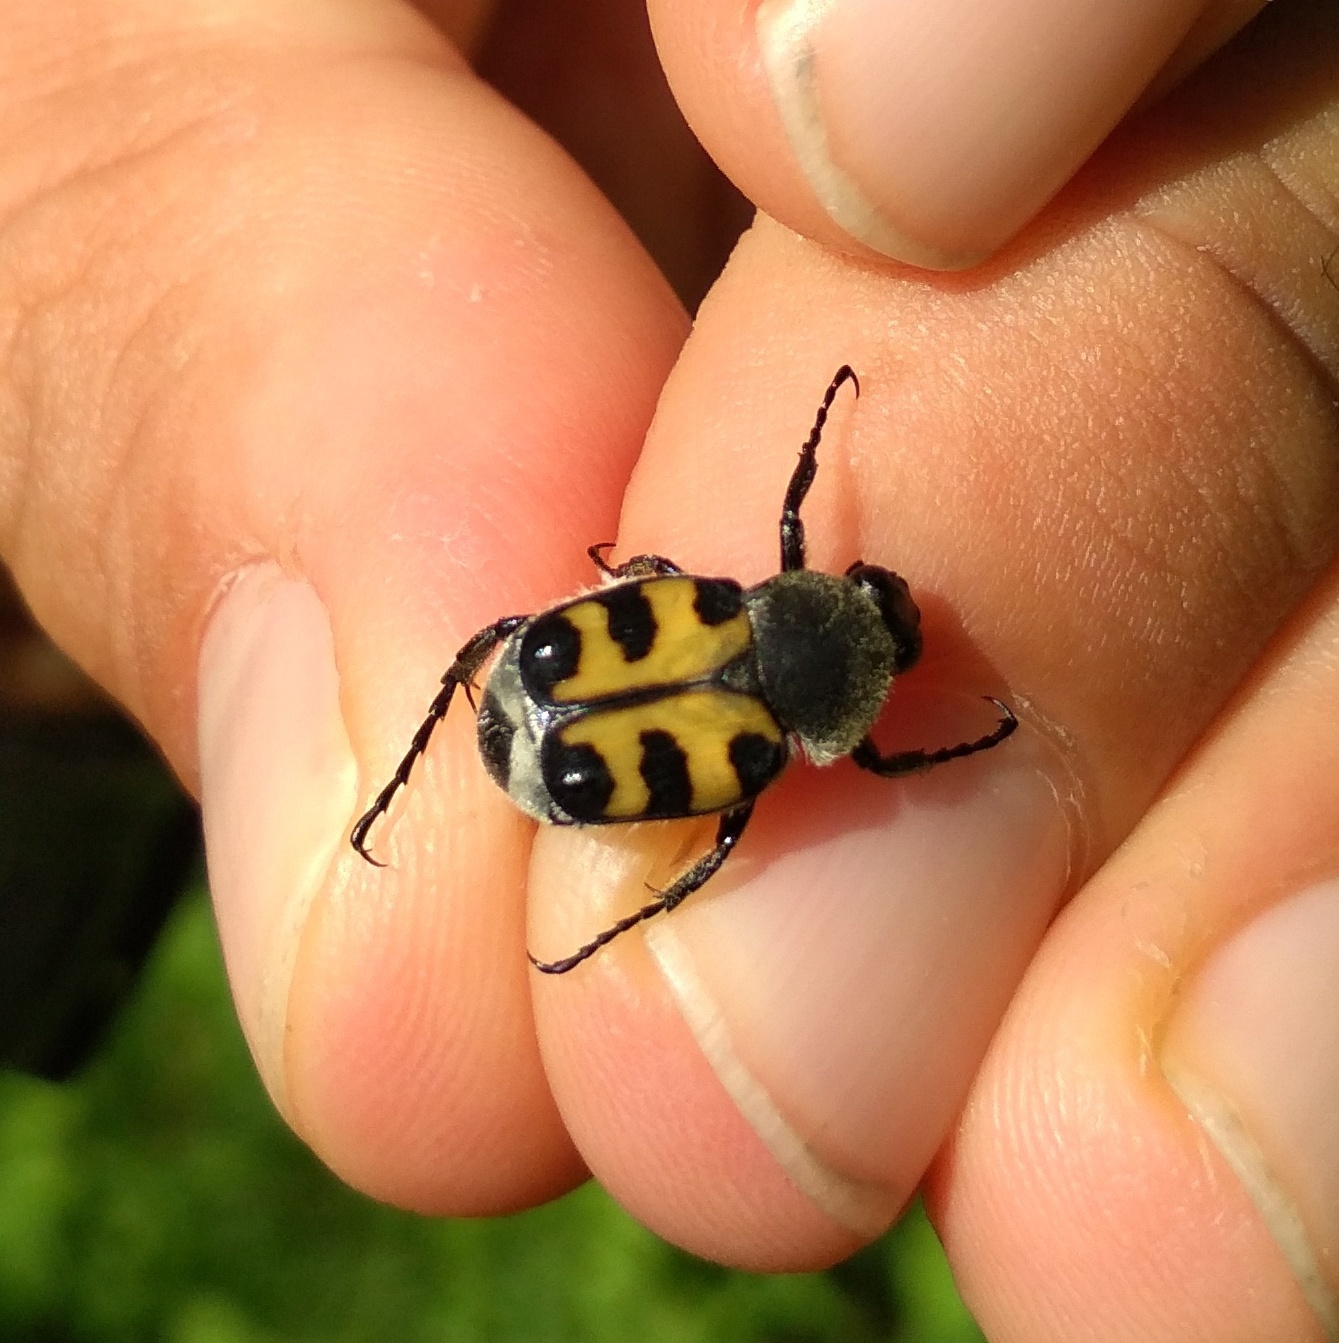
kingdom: Animalia
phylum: Arthropoda
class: Insecta
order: Coleoptera
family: Scarabaeidae
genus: Trichius
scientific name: Trichius gallicus
